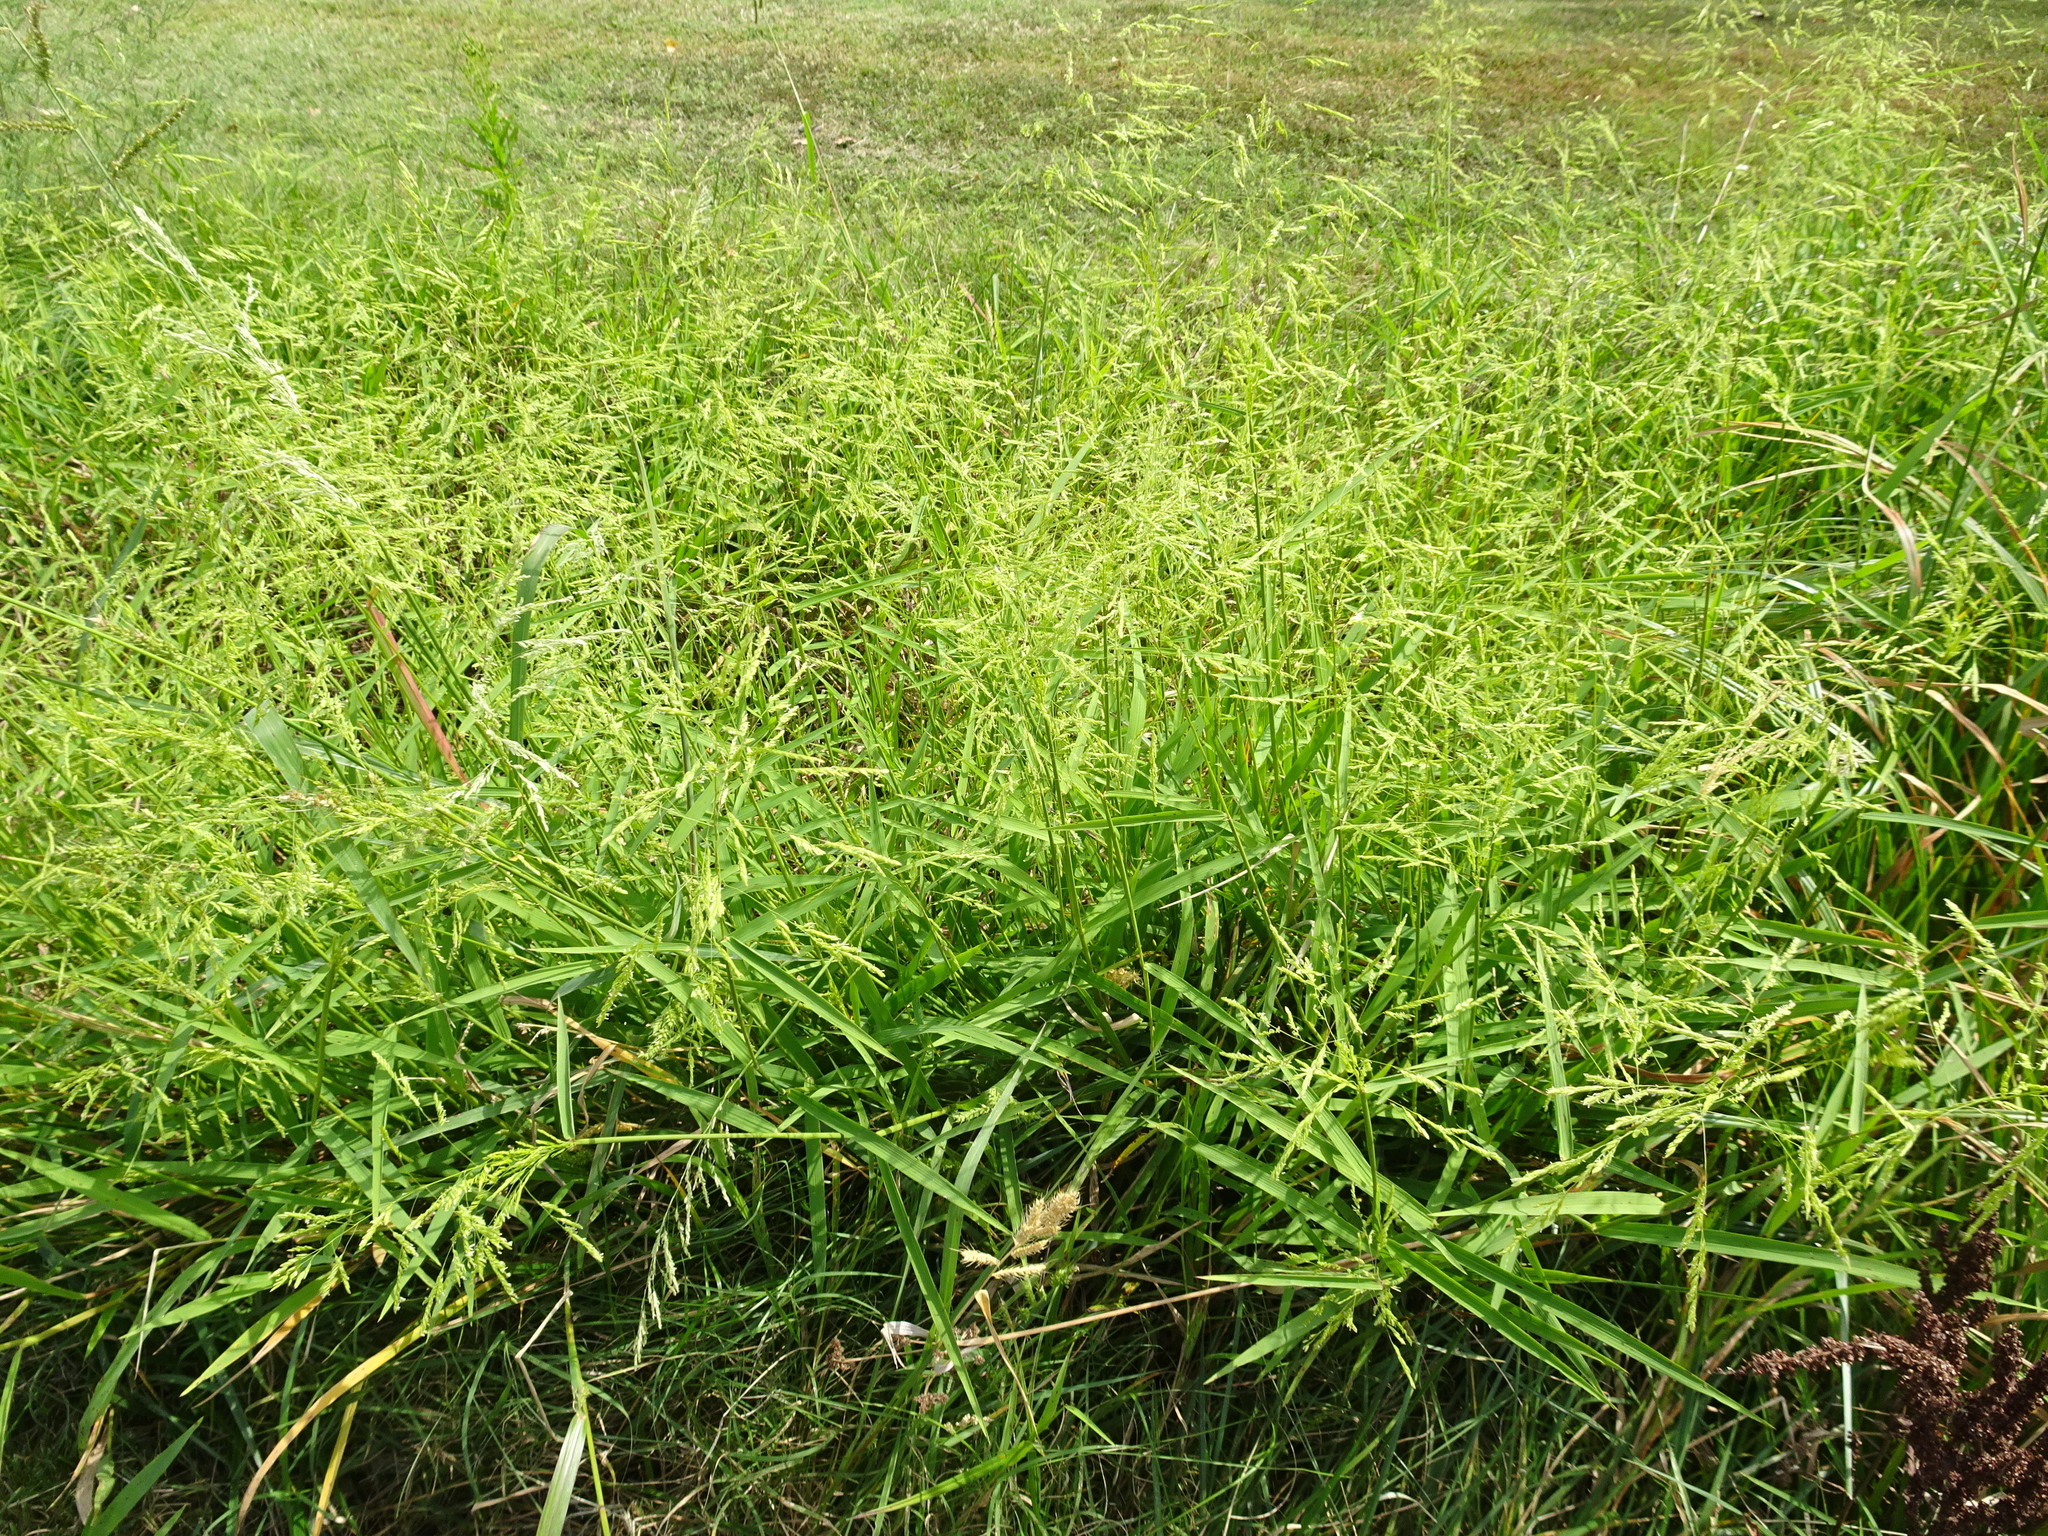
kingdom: Plantae
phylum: Tracheophyta
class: Liliopsida
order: Poales
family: Poaceae
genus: Leersia
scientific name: Leersia oryzoides
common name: Cut-grass
